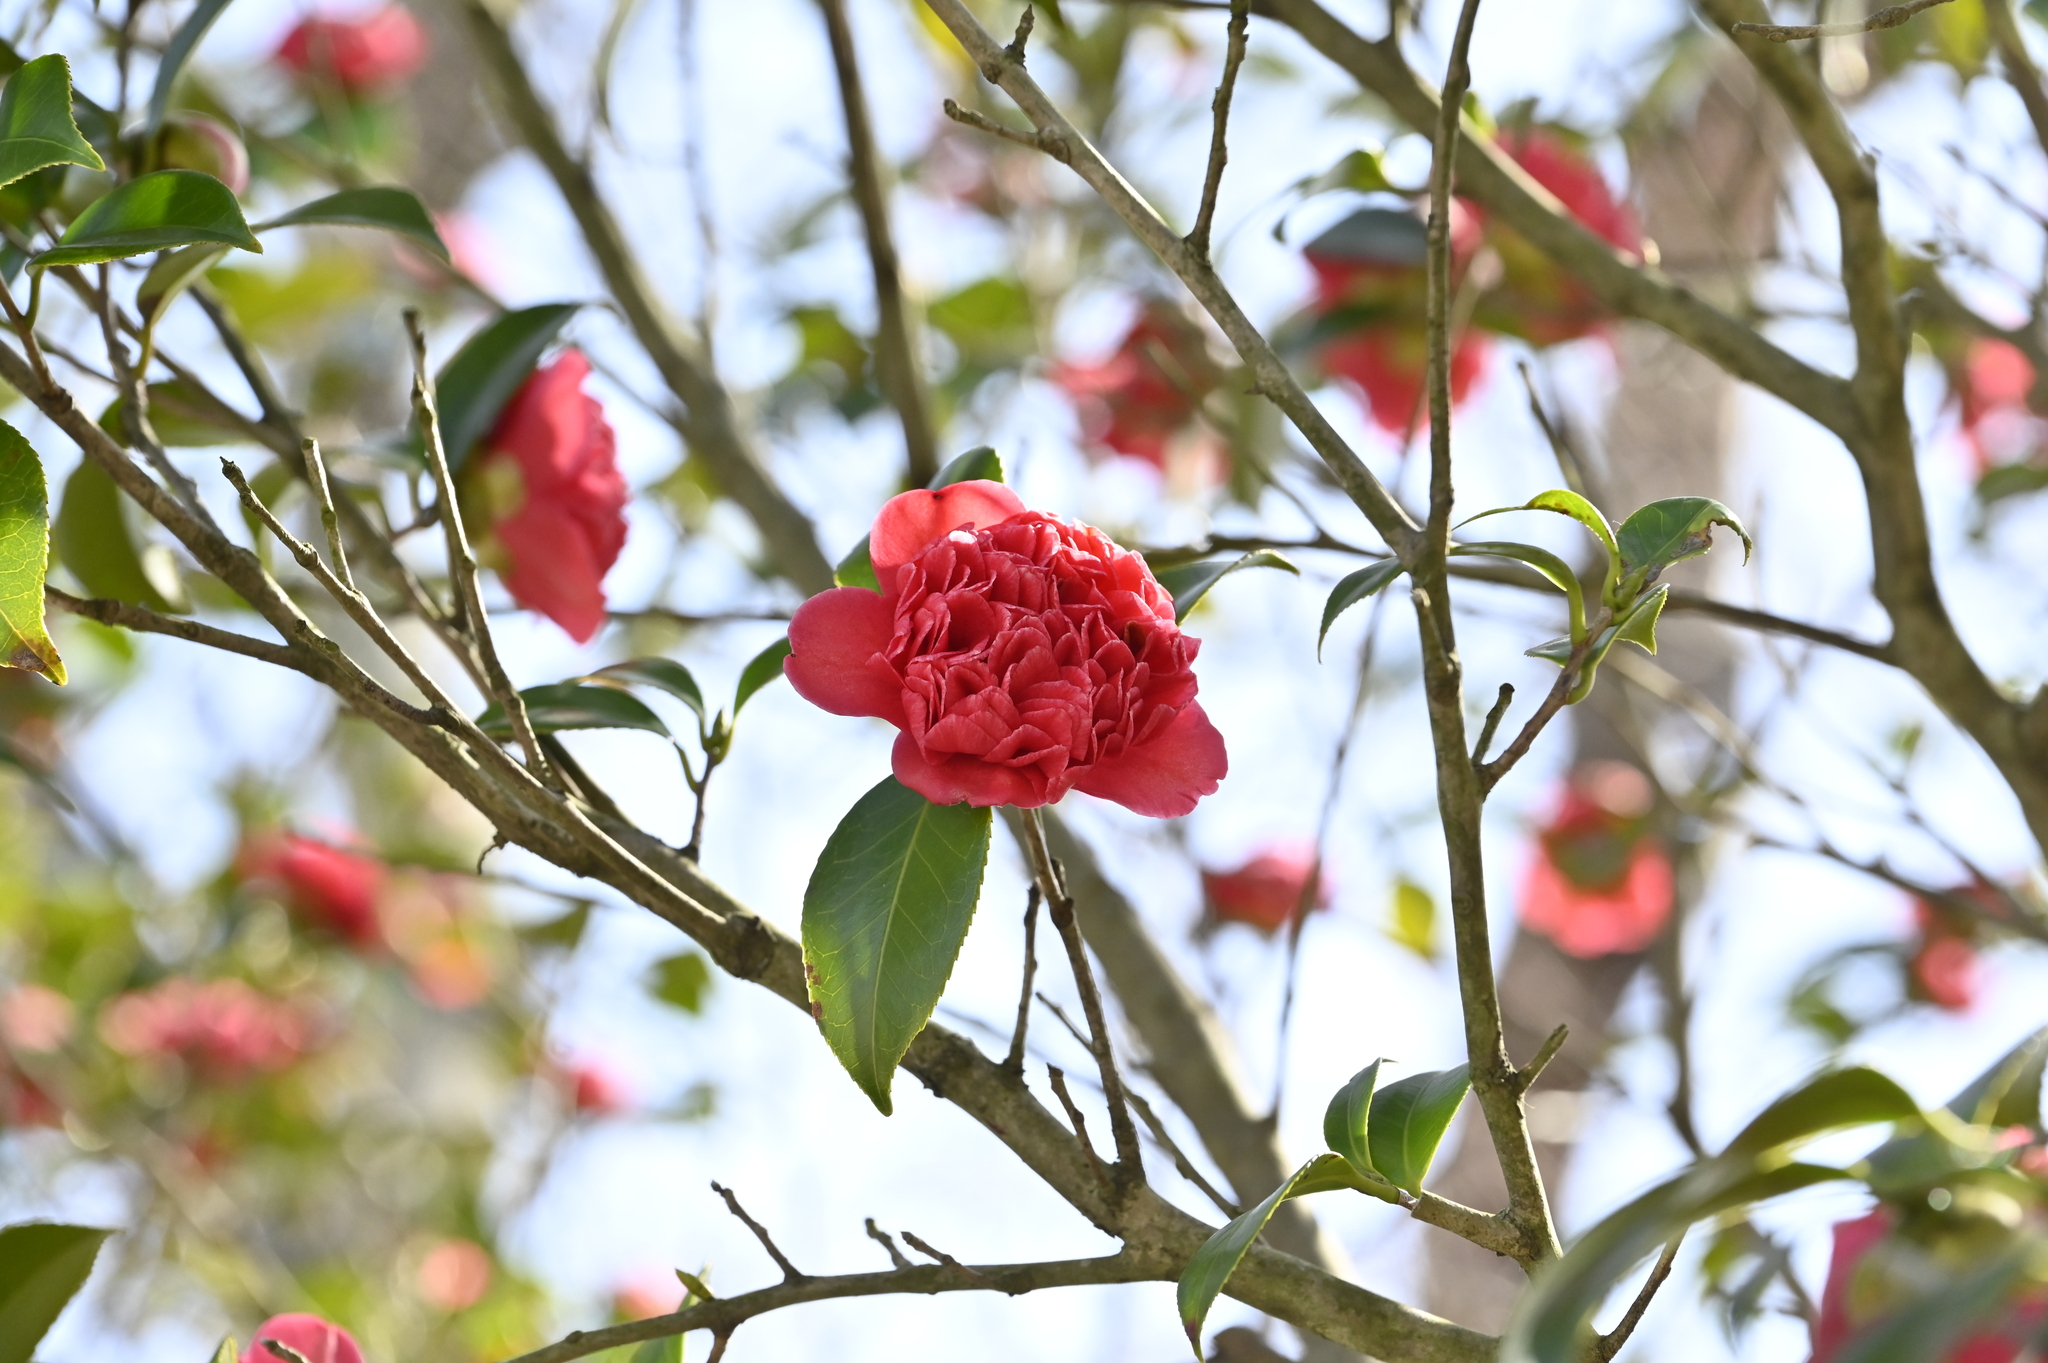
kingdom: Plantae
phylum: Tracheophyta
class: Magnoliopsida
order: Ericales
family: Theaceae
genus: Camellia
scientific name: Camellia japonica
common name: Camellia
